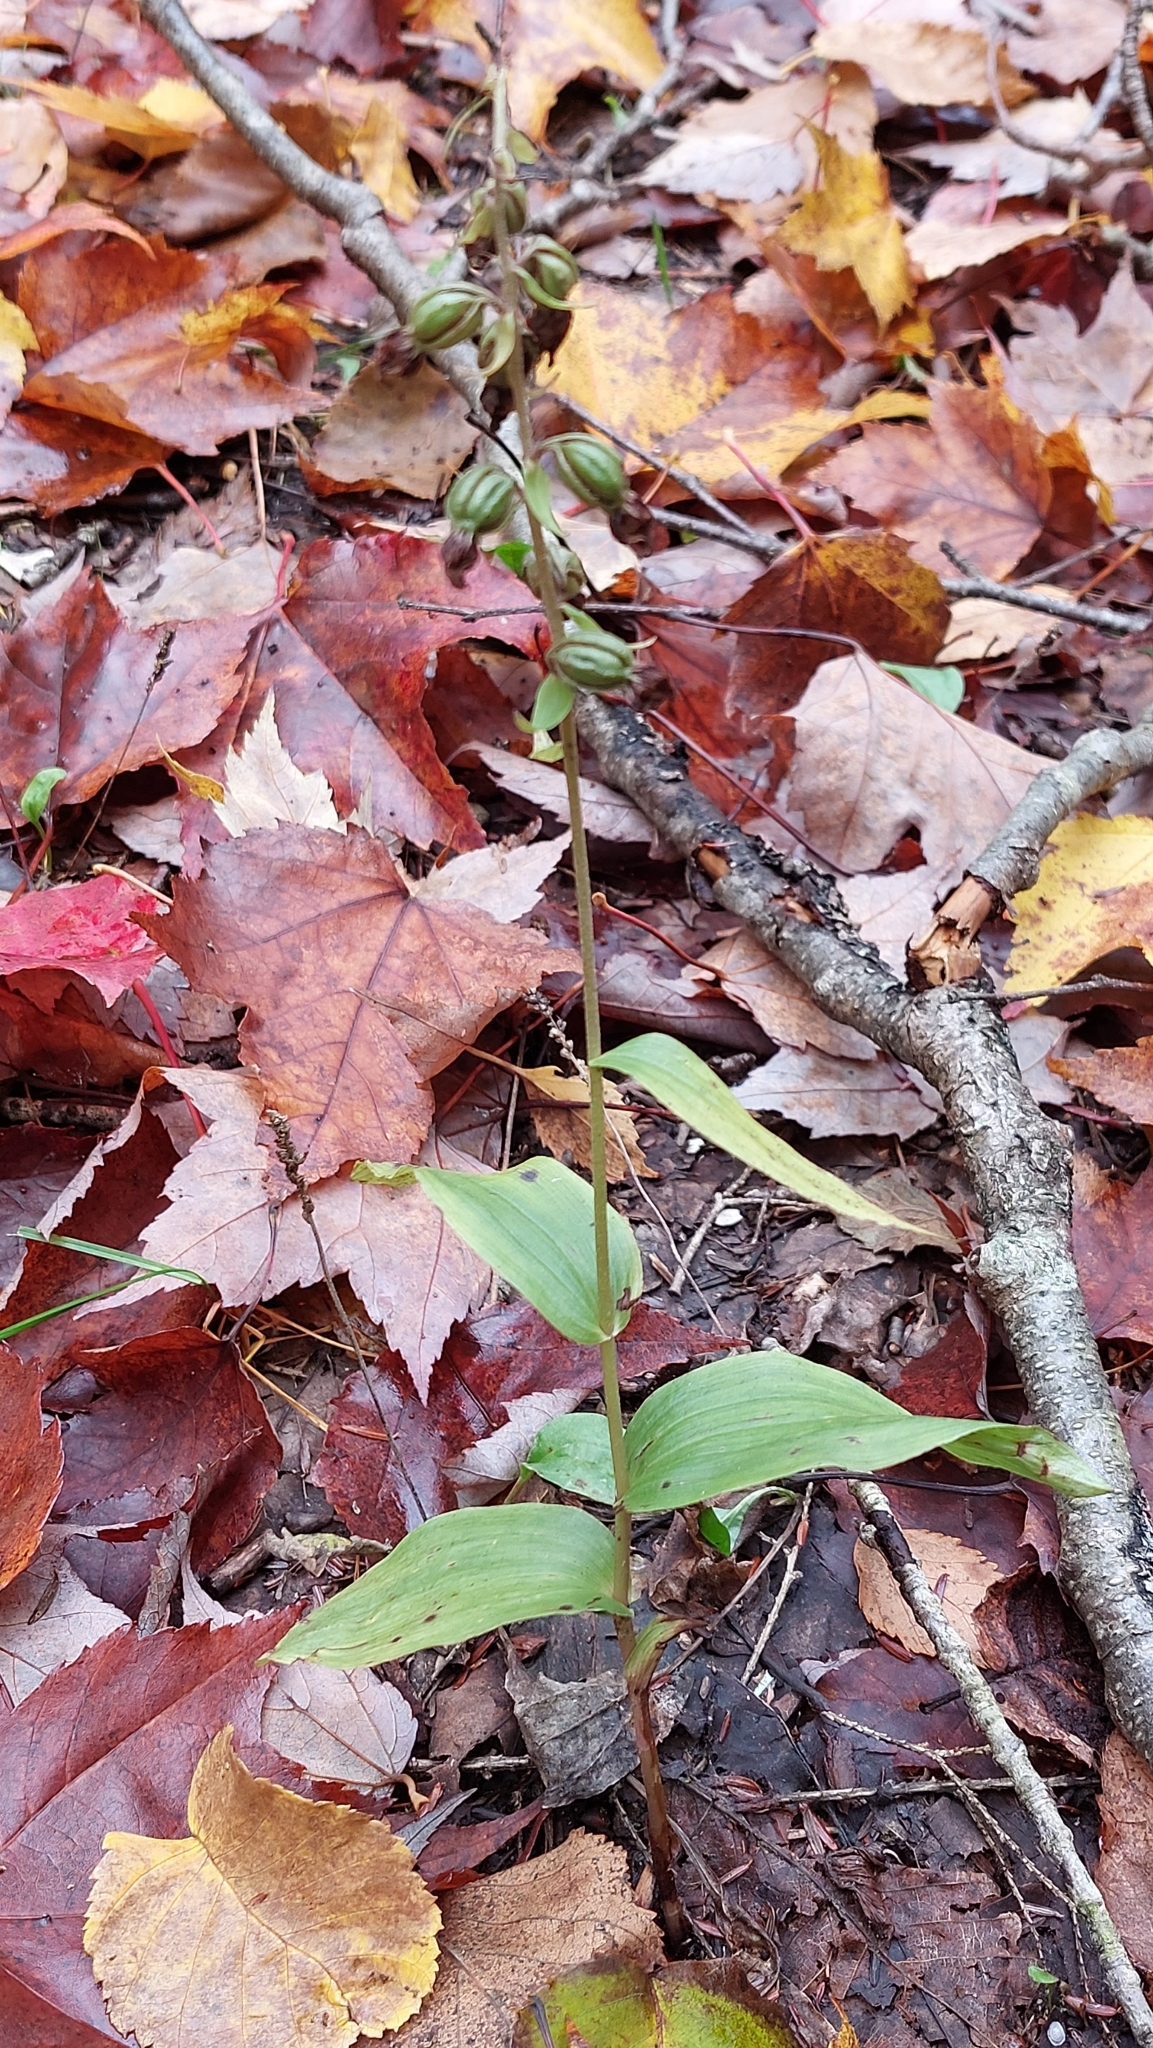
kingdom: Plantae
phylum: Tracheophyta
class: Liliopsida
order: Asparagales
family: Orchidaceae
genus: Epipactis
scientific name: Epipactis helleborine
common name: Broad-leaved helleborine
